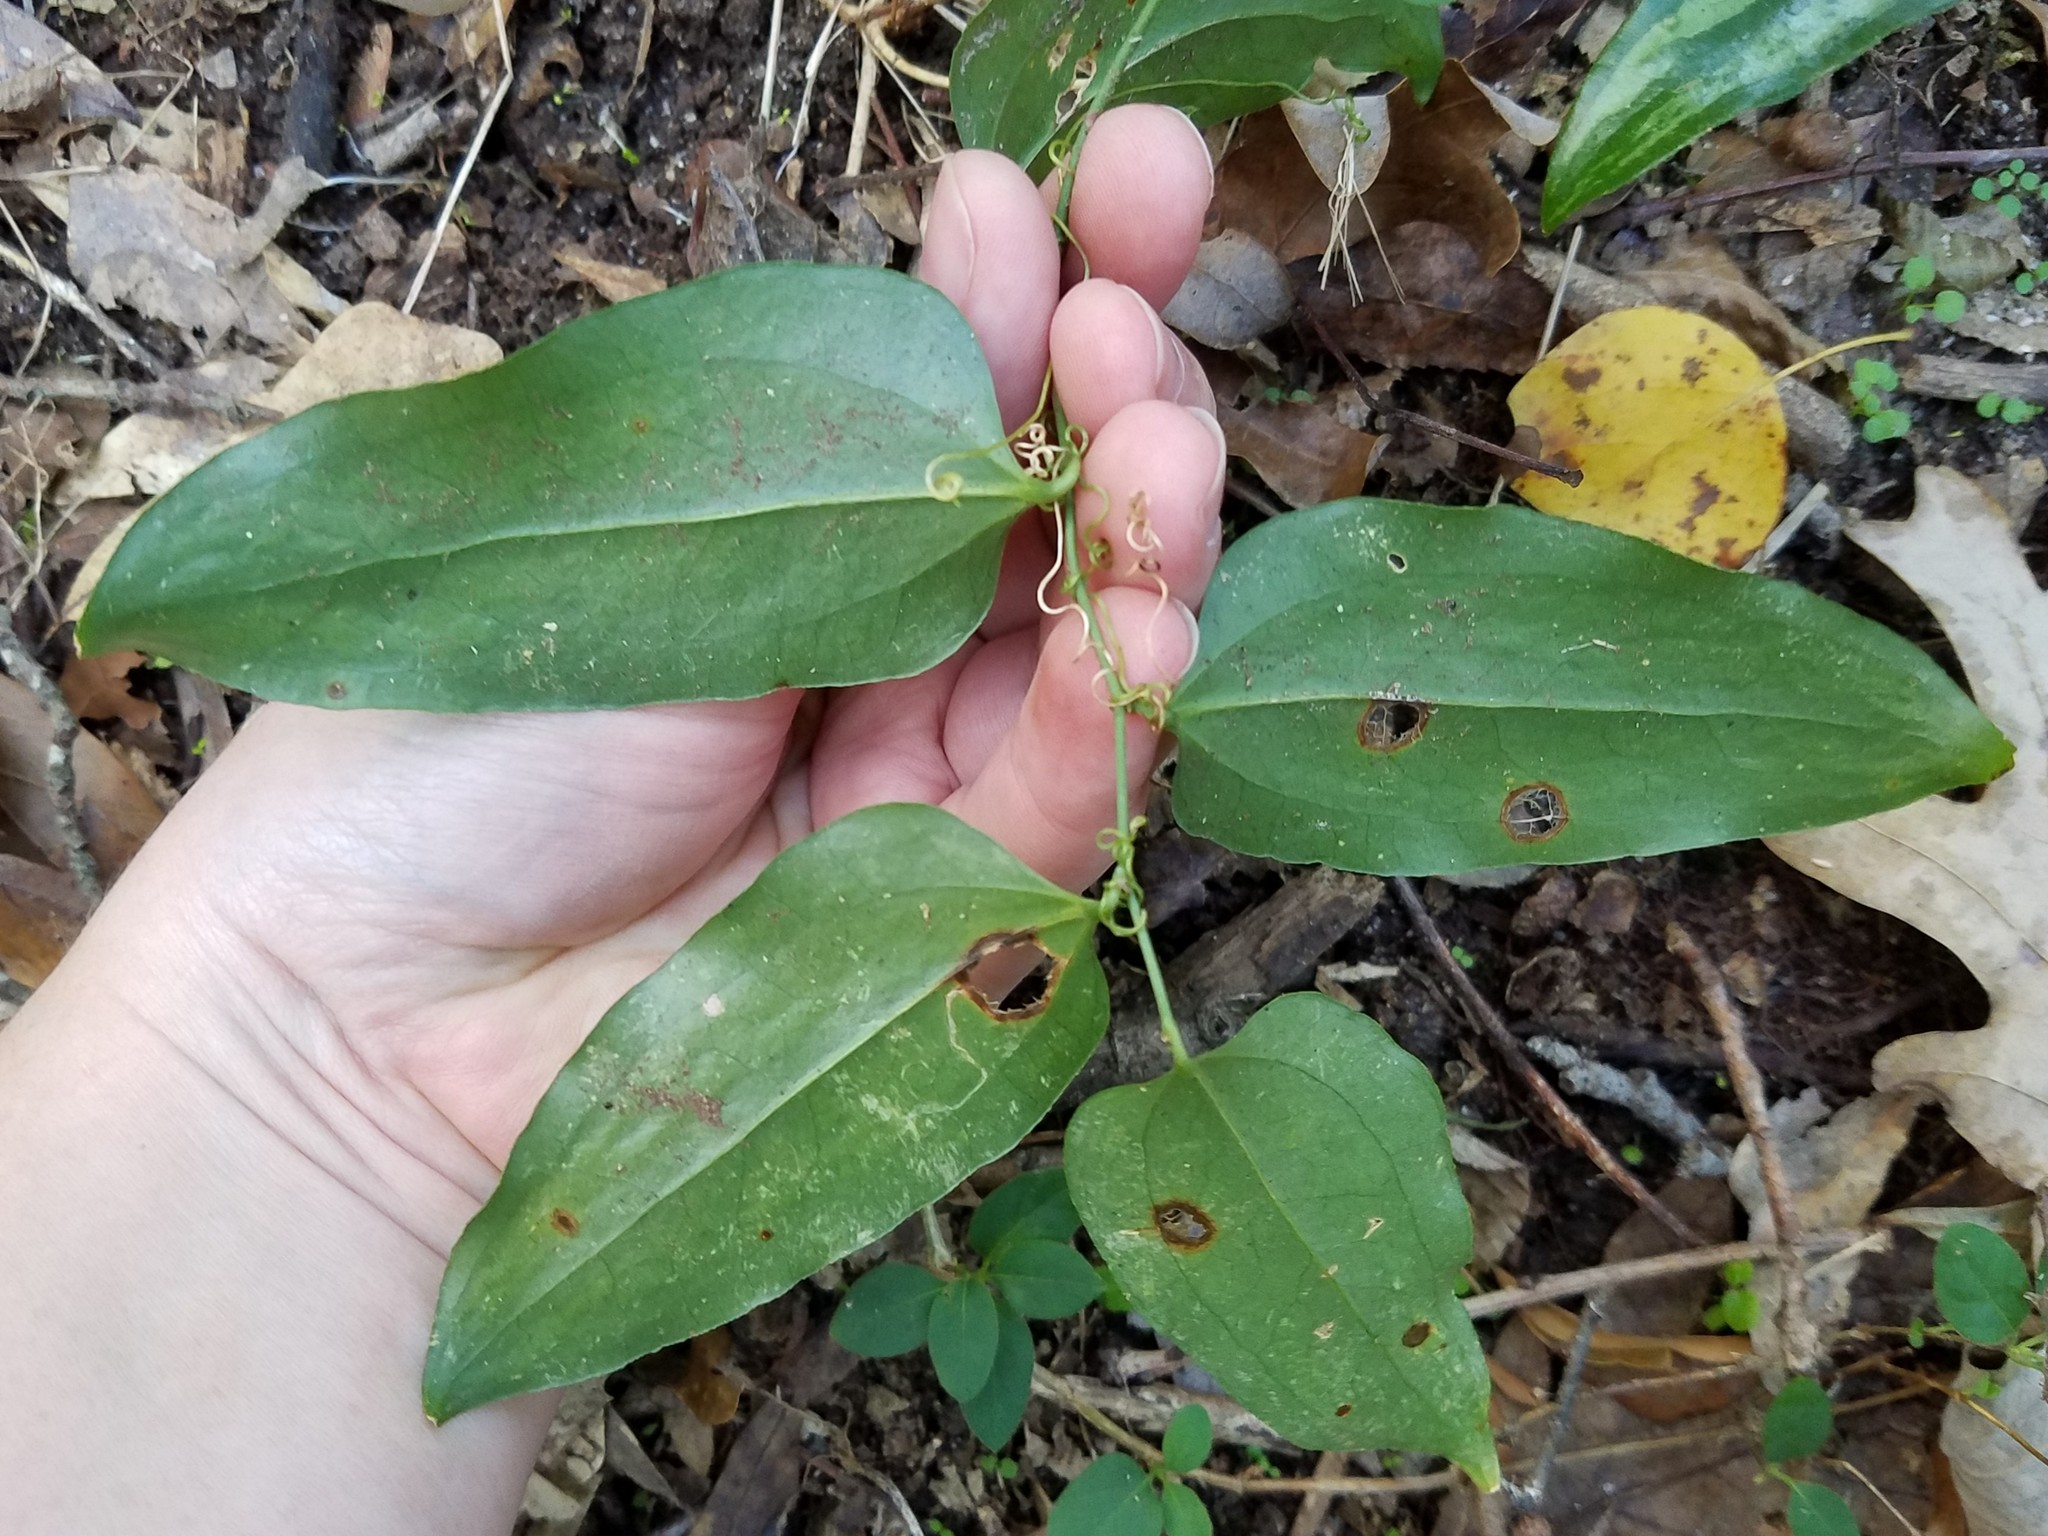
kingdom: Plantae
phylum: Tracheophyta
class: Liliopsida
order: Liliales
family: Smilacaceae
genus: Smilax
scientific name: Smilax maritima
